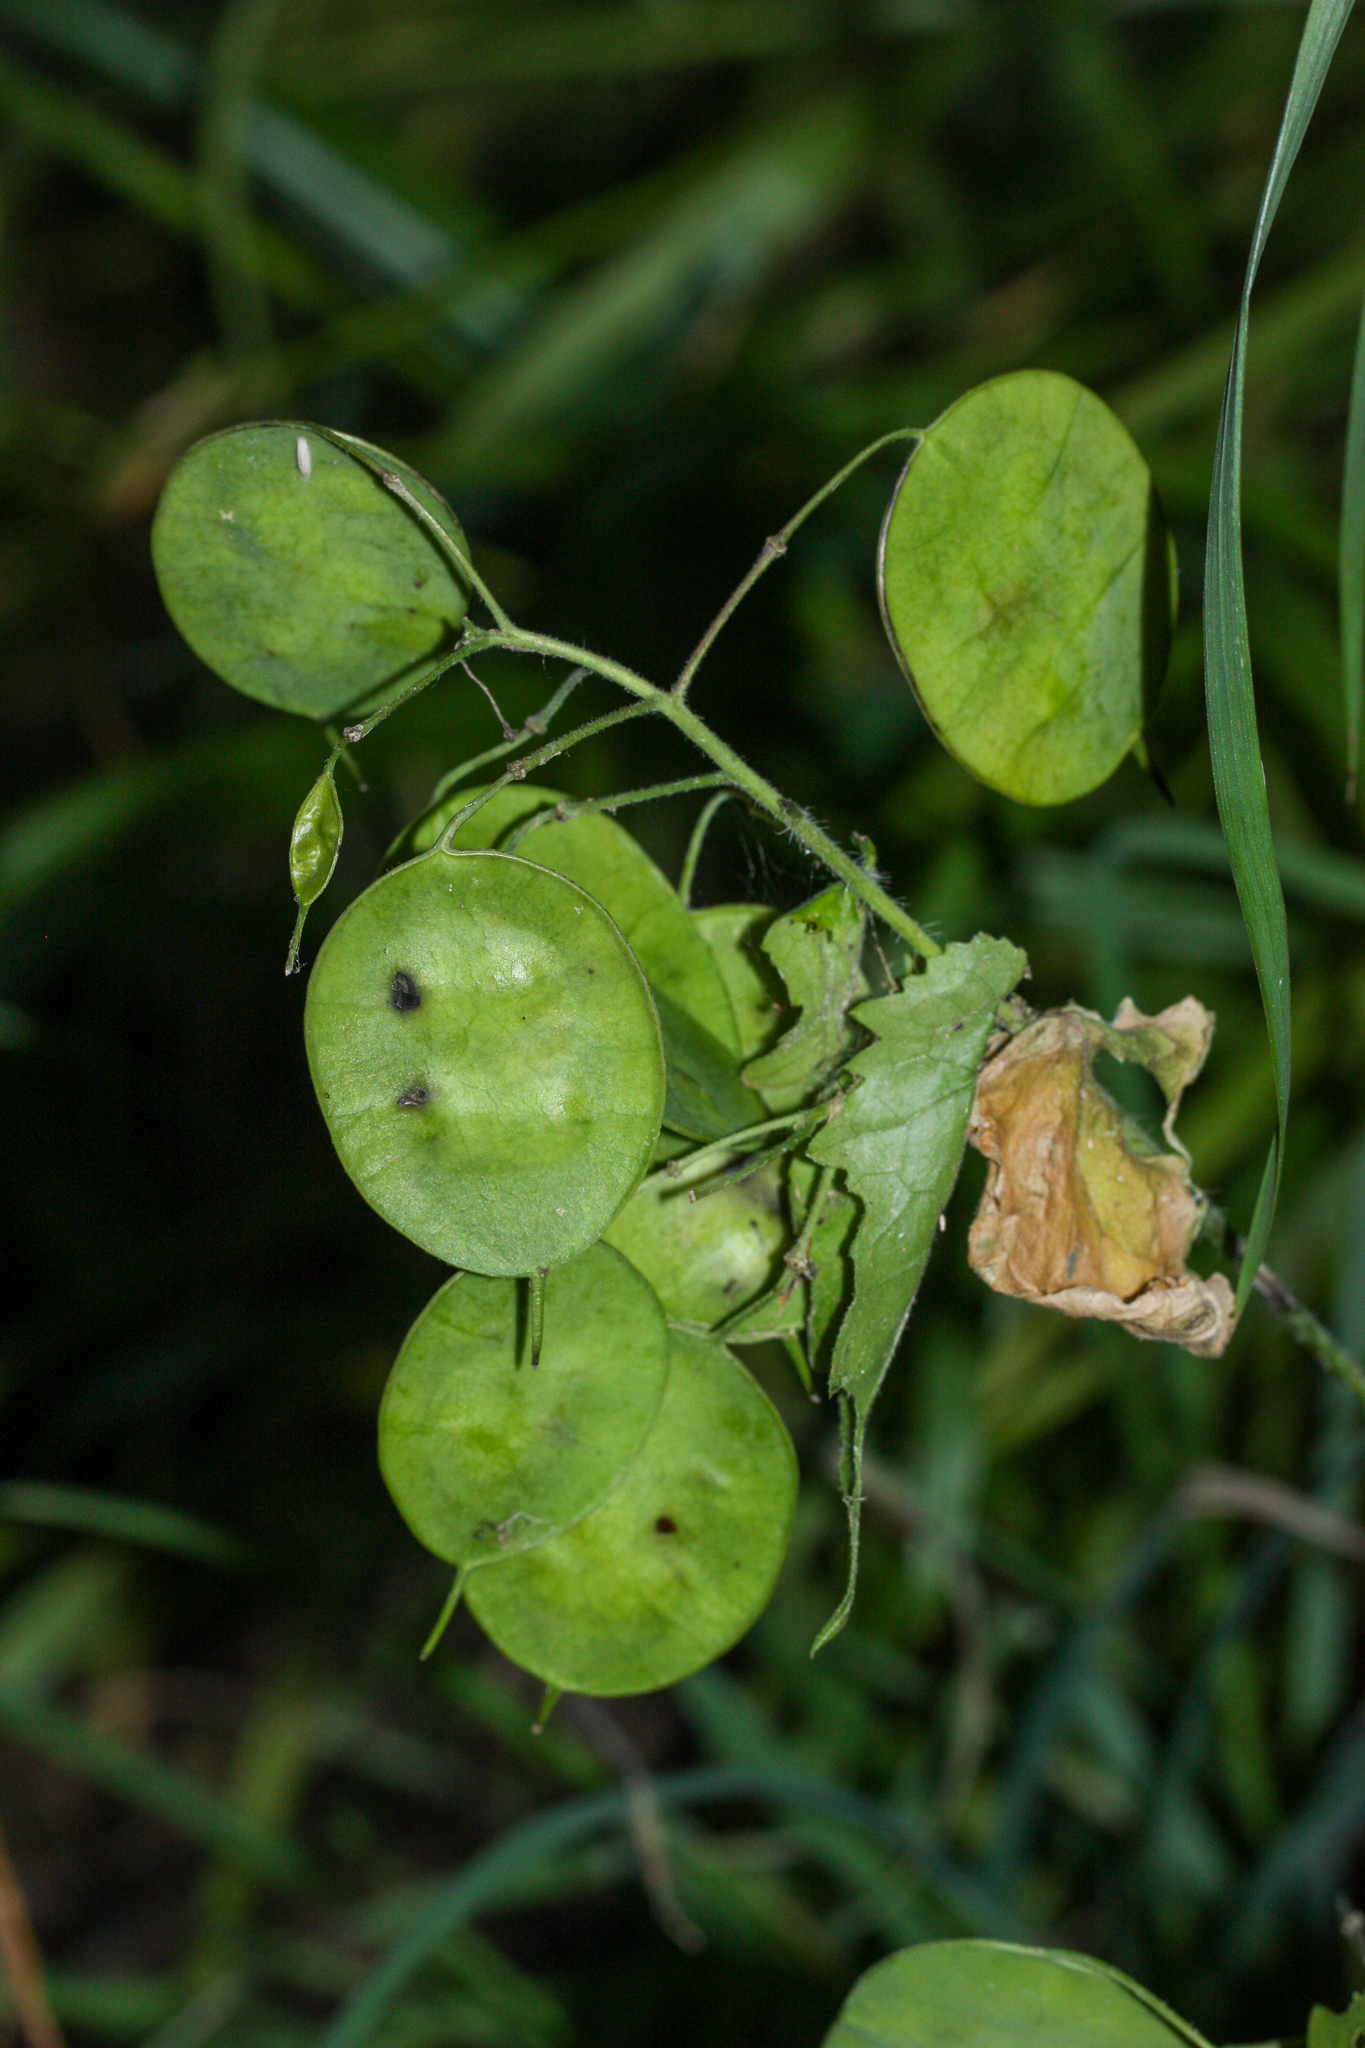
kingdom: Plantae
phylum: Tracheophyta
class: Magnoliopsida
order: Brassicales
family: Brassicaceae
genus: Lunaria
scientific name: Lunaria annua
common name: Honesty
